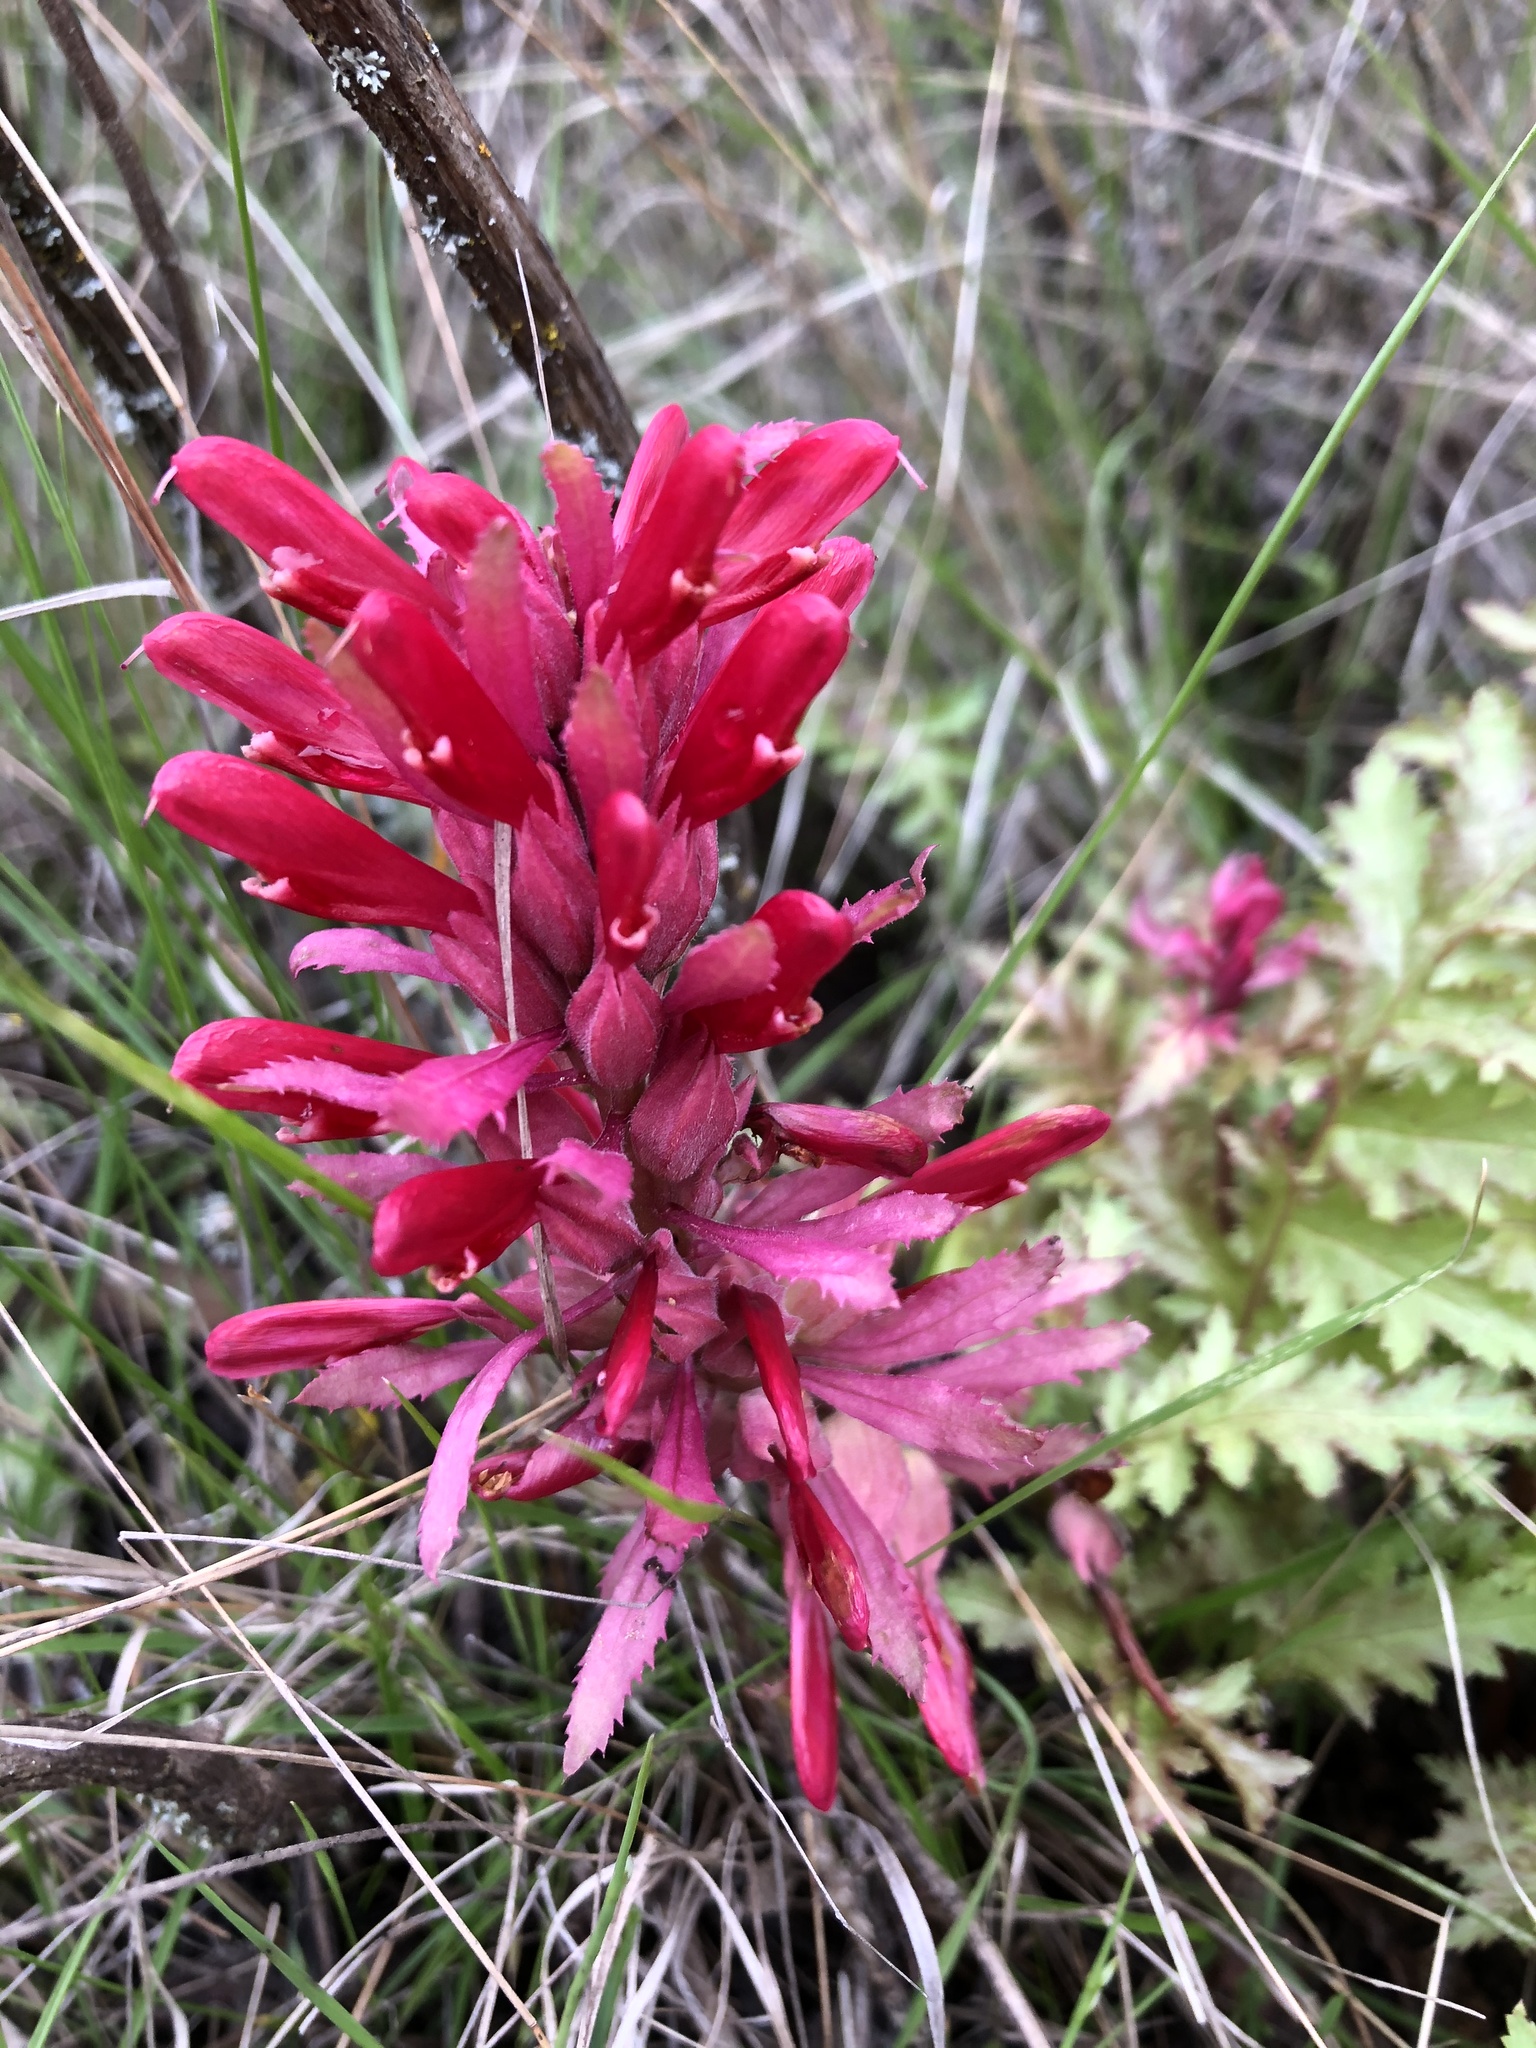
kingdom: Plantae
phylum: Tracheophyta
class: Magnoliopsida
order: Lamiales
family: Orobanchaceae
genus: Pedicularis
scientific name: Pedicularis densiflora
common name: Indian warrior
